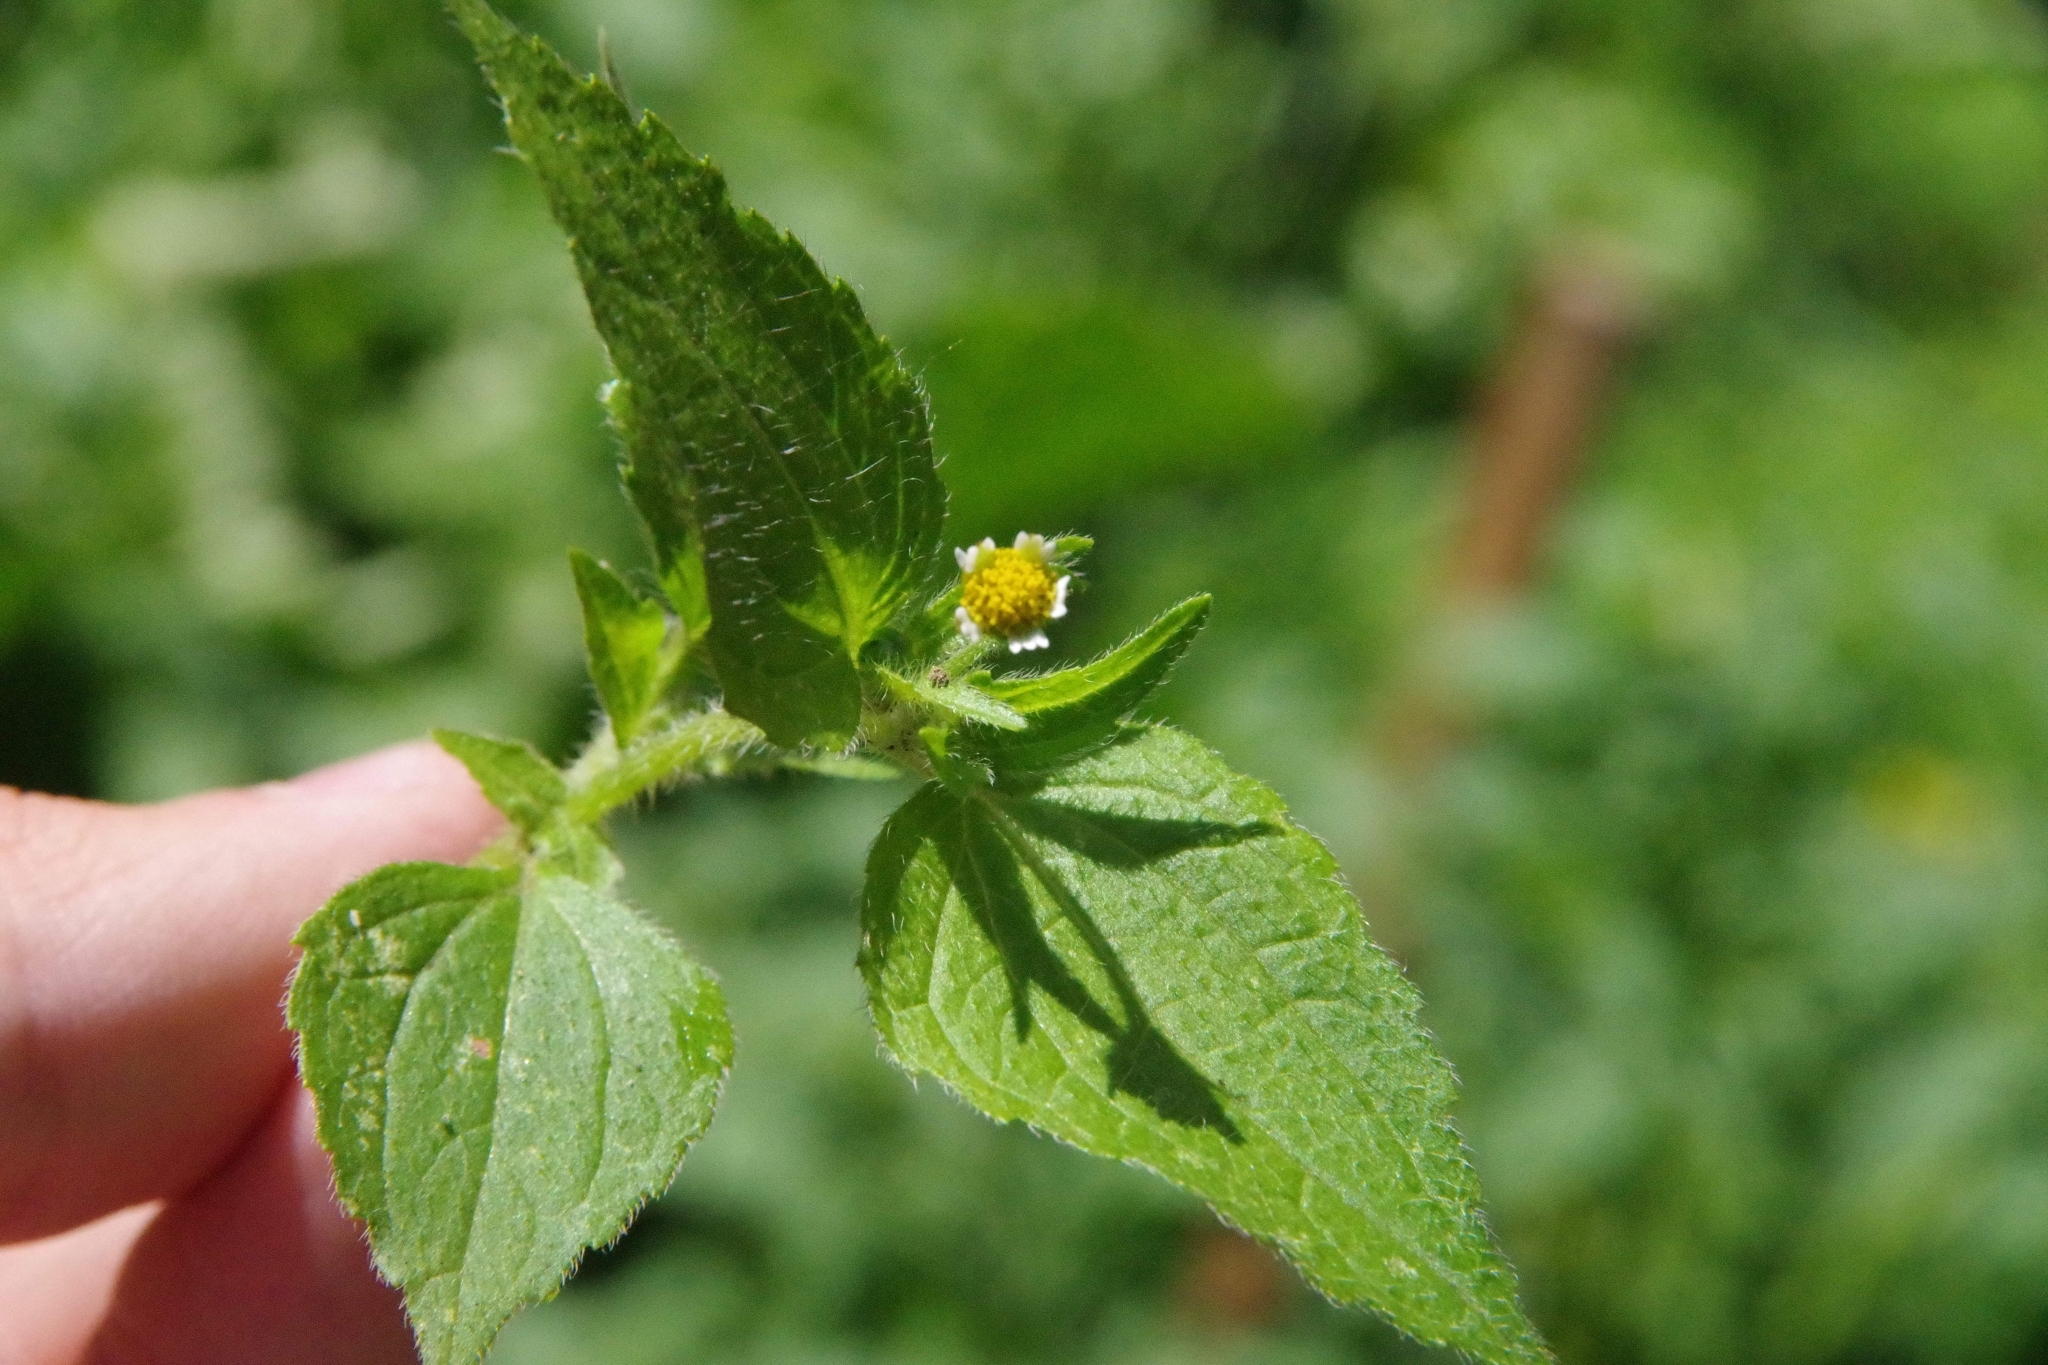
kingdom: Plantae
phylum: Tracheophyta
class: Magnoliopsida
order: Asterales
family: Asteraceae
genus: Galinsoga
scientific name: Galinsoga quadriradiata
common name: Shaggy soldier
